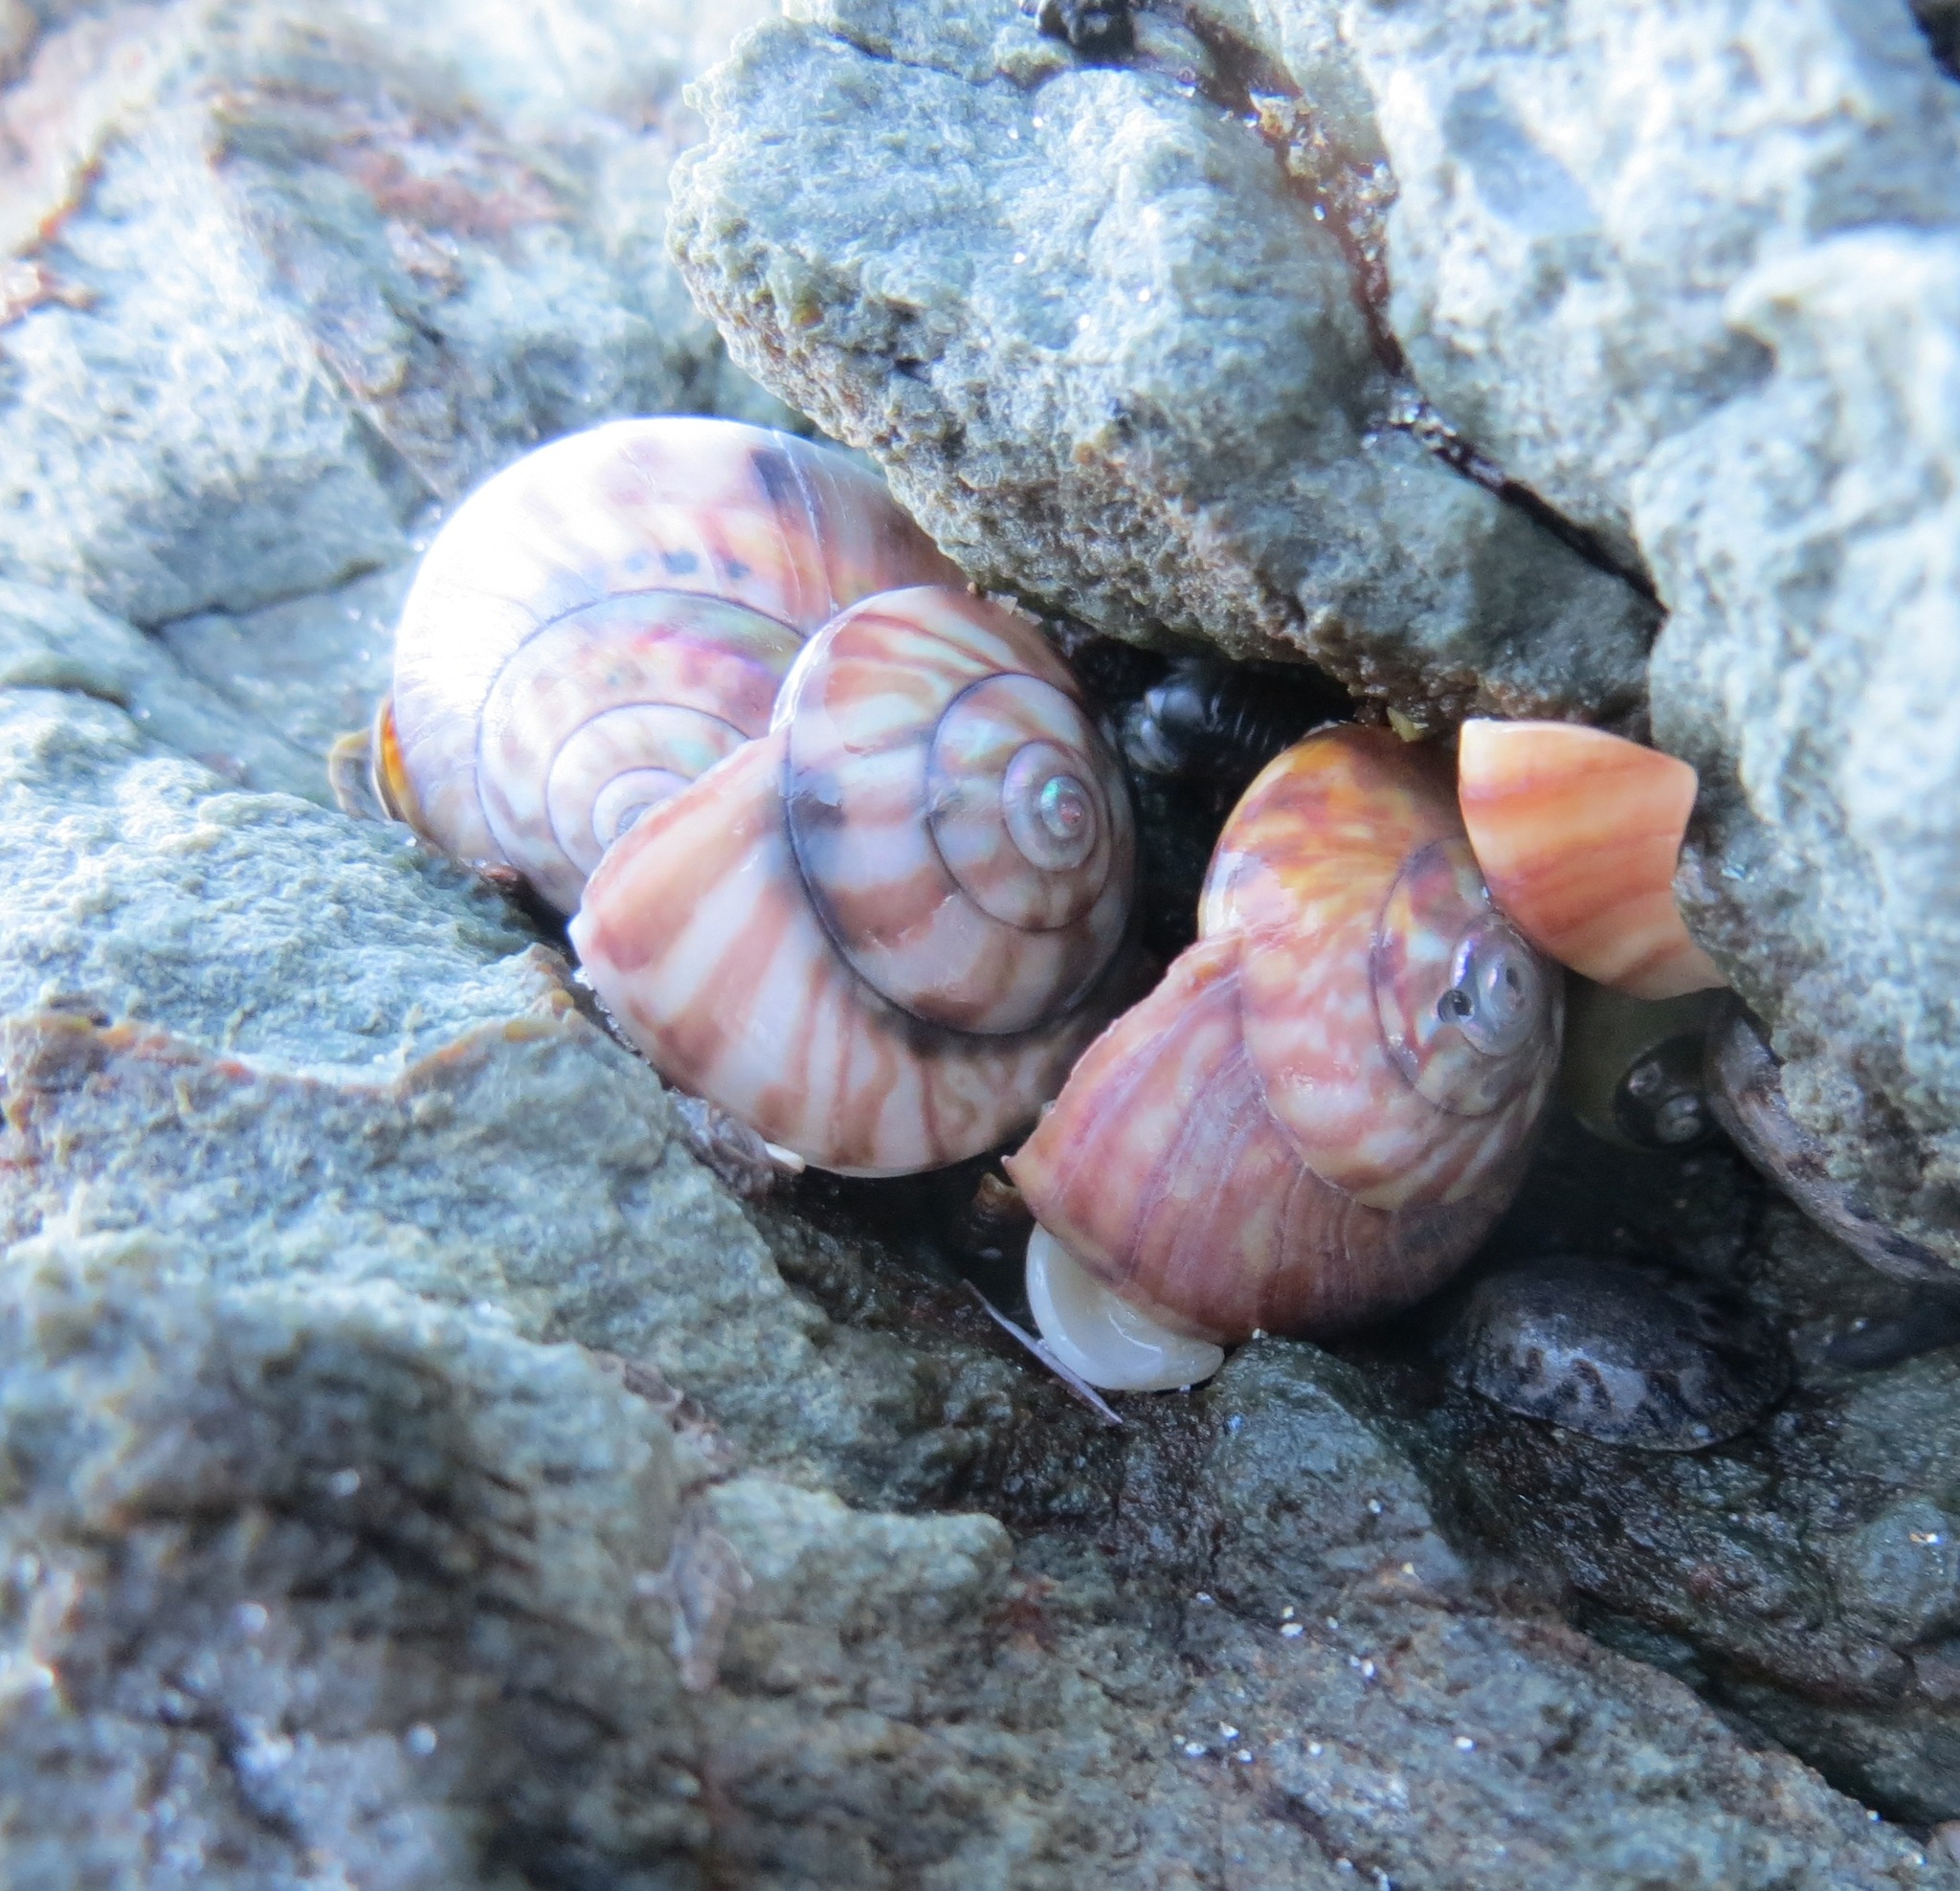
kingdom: Animalia
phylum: Mollusca
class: Gastropoda
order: Trochida
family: Trochidae
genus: Zethalia
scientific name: Zethalia zelandica
